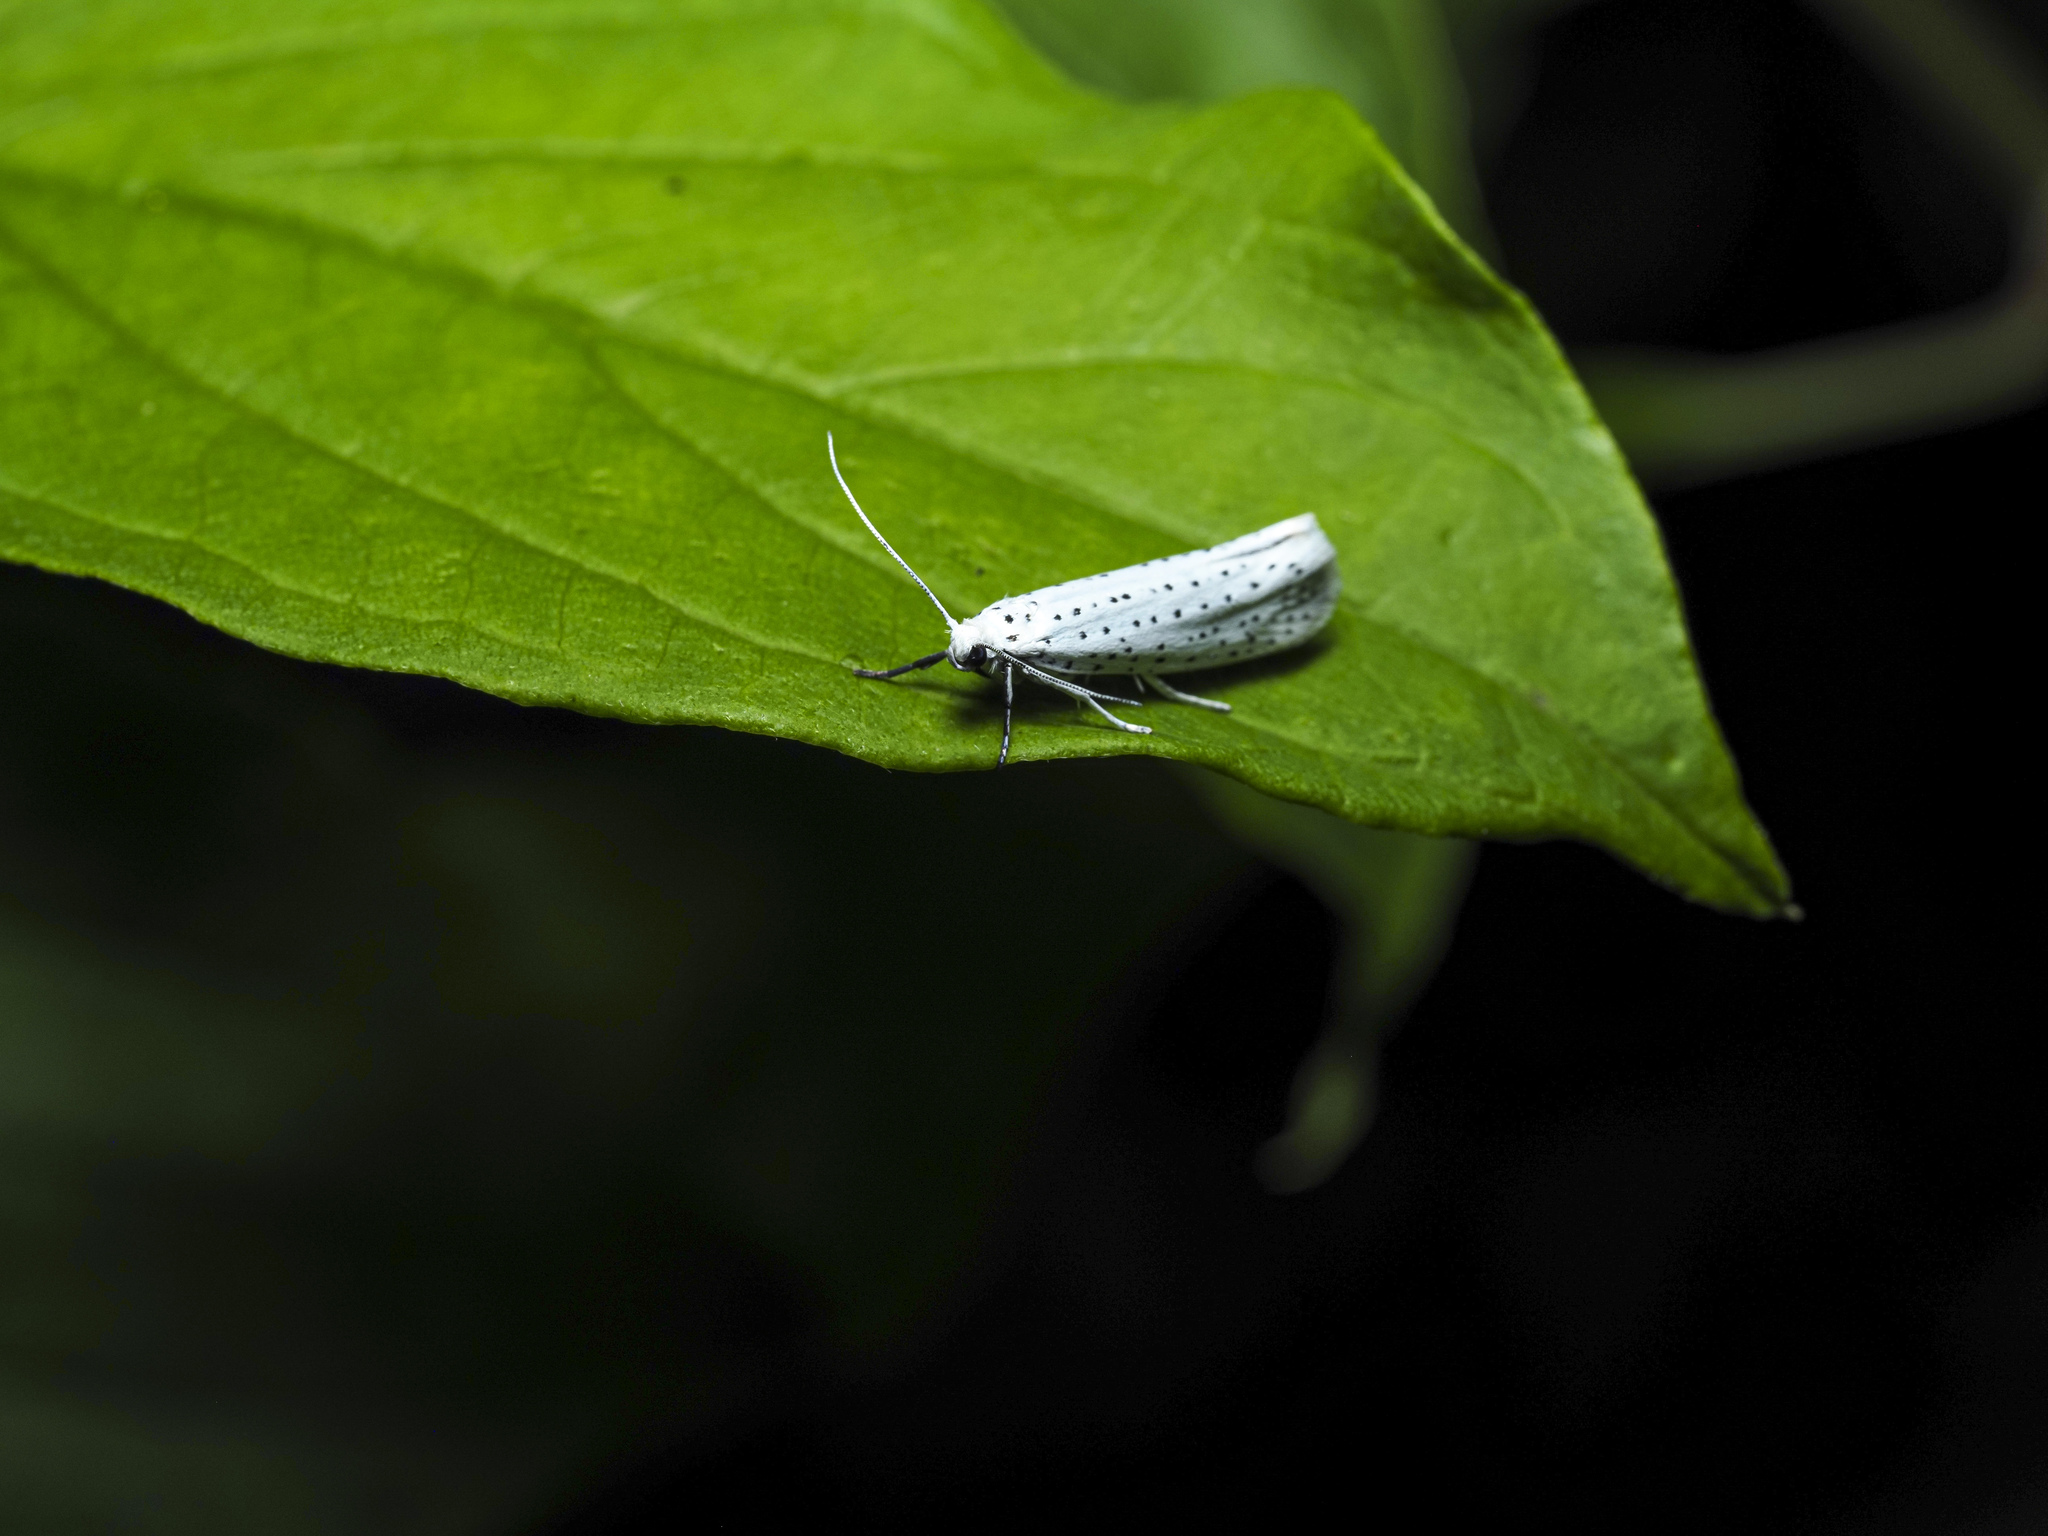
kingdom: Animalia
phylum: Arthropoda
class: Insecta
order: Lepidoptera
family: Yponomeutidae
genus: Yponomeuta
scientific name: Yponomeuta evonymella
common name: Bird-cherry ermine
